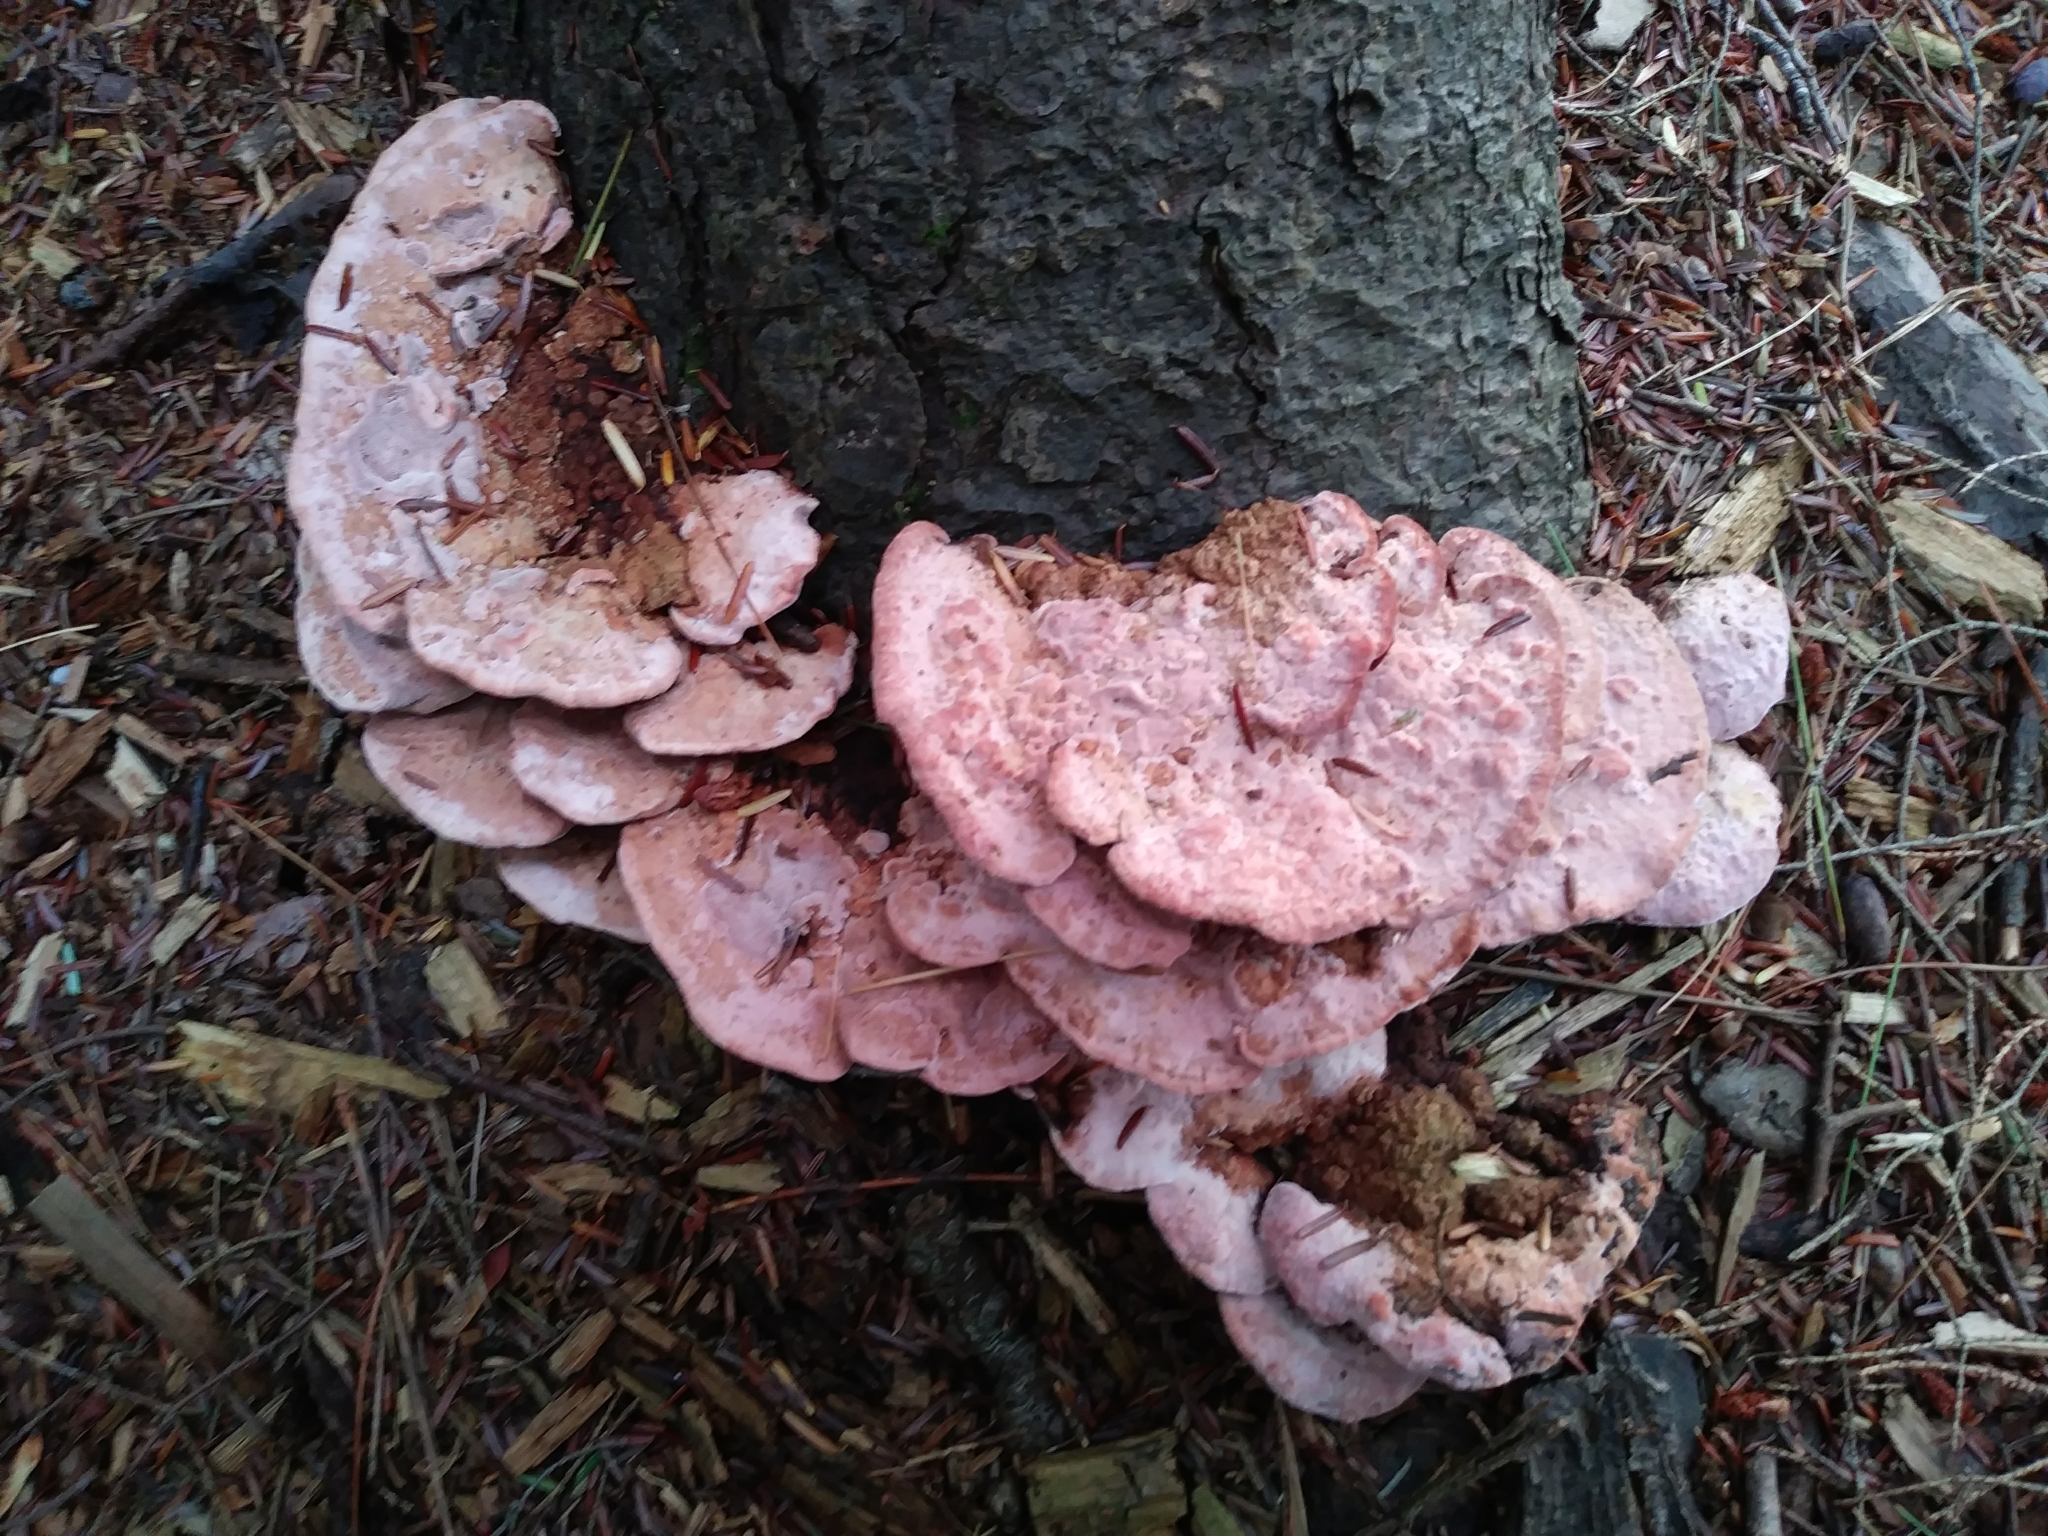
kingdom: Fungi
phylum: Basidiomycota
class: Agaricomycetes
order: Polyporales
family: Fomitopsidaceae
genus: Rhodofomes
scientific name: Rhodofomes cajanderi
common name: Rosy conk
